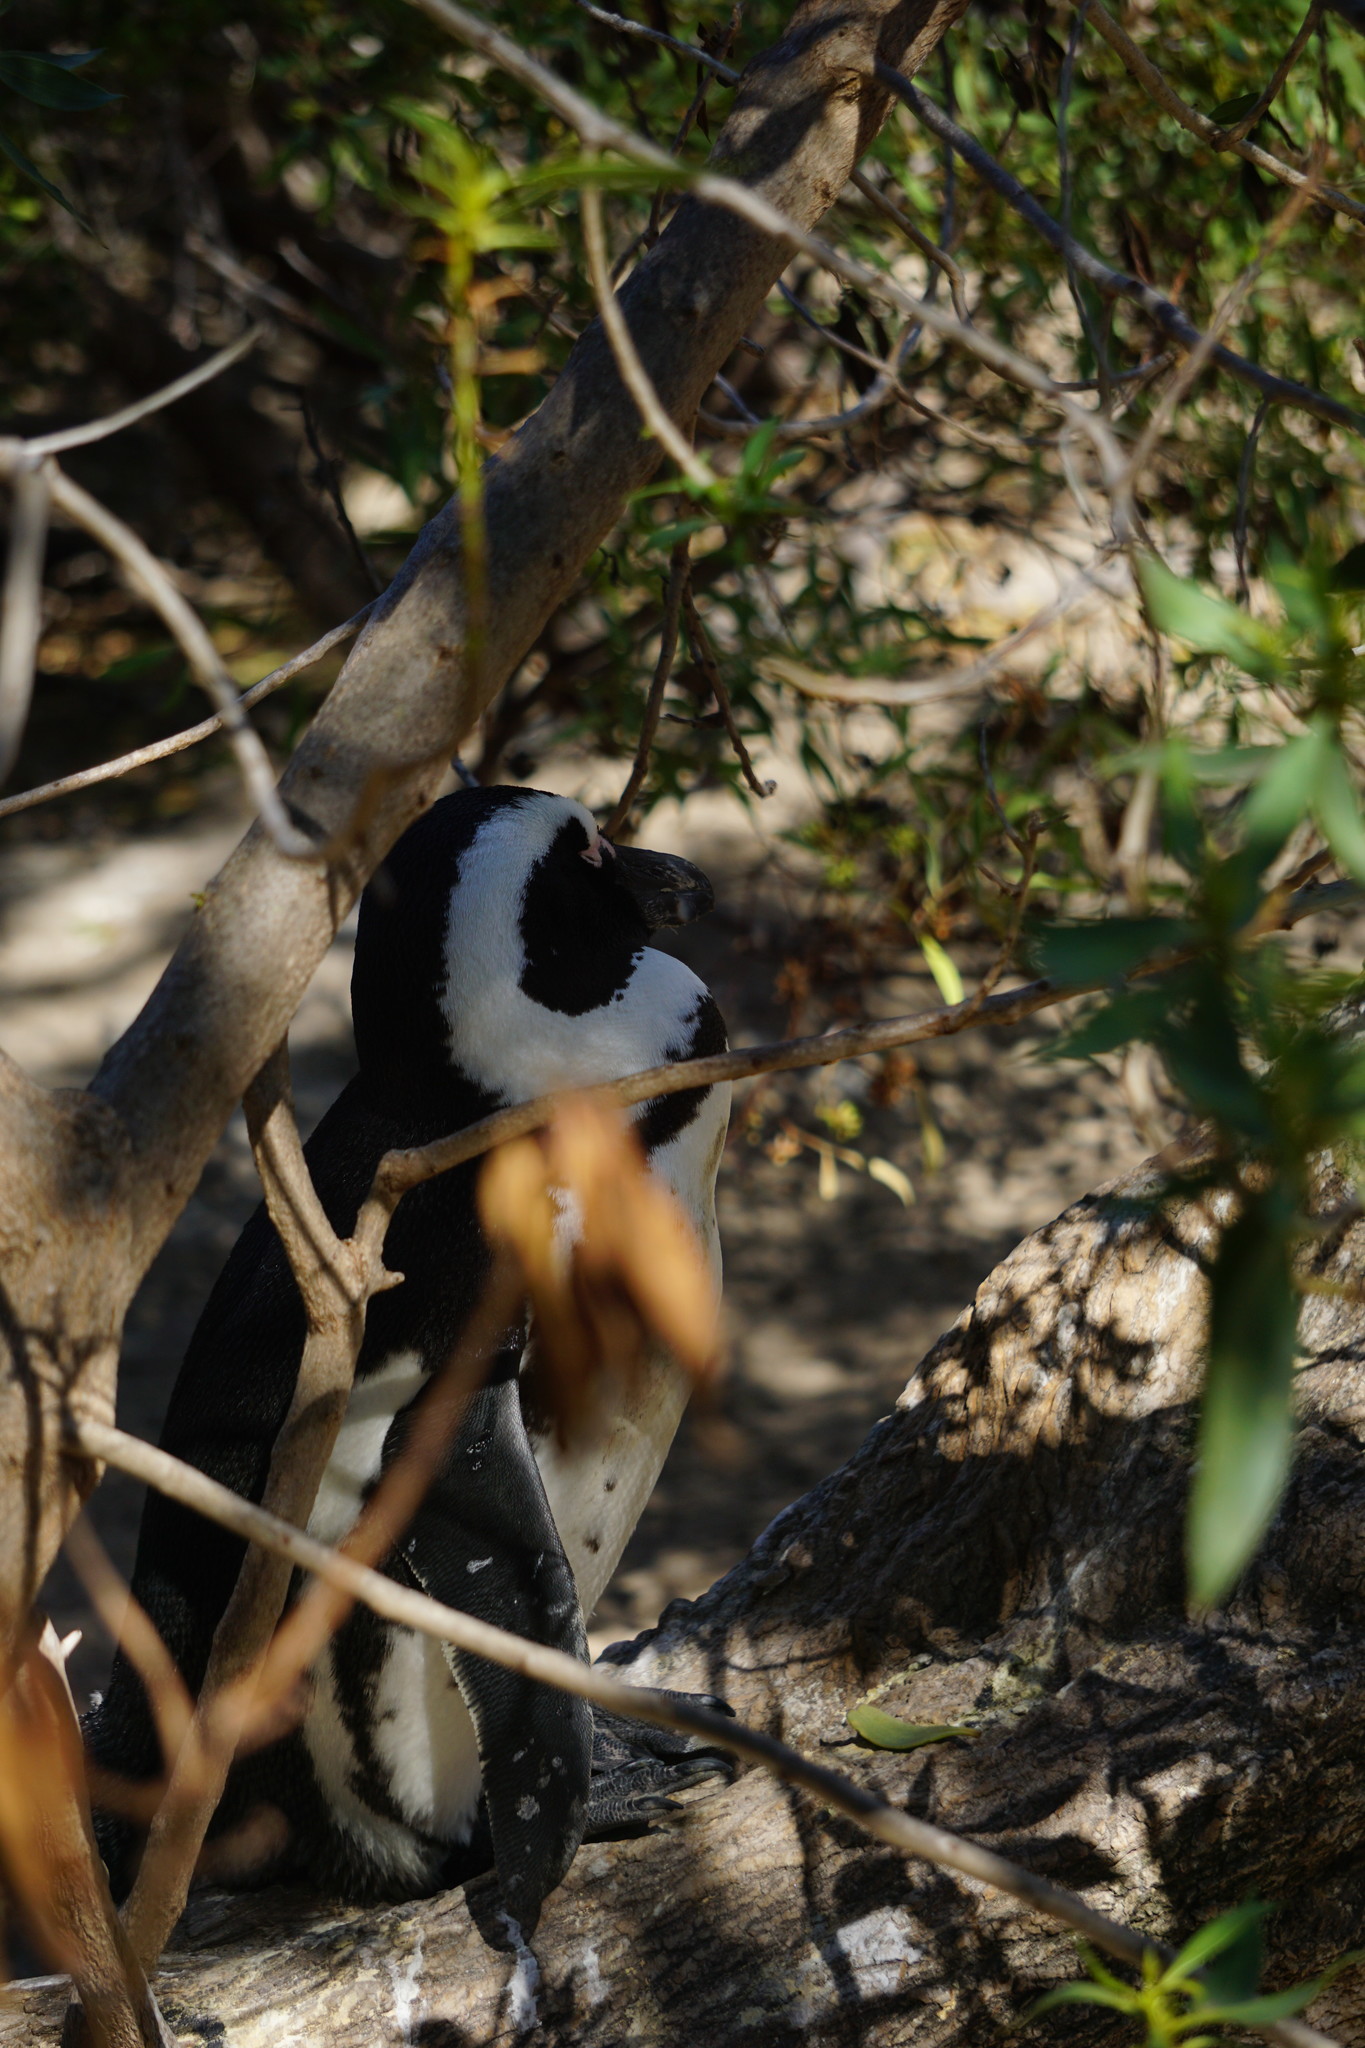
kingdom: Animalia
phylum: Chordata
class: Aves
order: Sphenisciformes
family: Spheniscidae
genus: Spheniscus
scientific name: Spheniscus demersus
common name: African penguin
